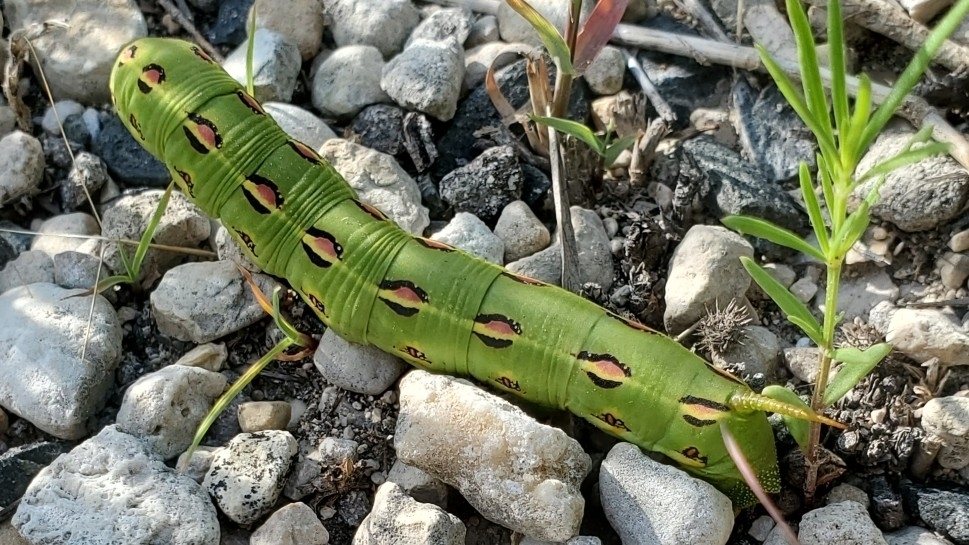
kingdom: Animalia
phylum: Arthropoda
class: Insecta
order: Lepidoptera
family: Sphingidae
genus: Hyles
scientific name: Hyles lineata
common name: White-lined sphinx
